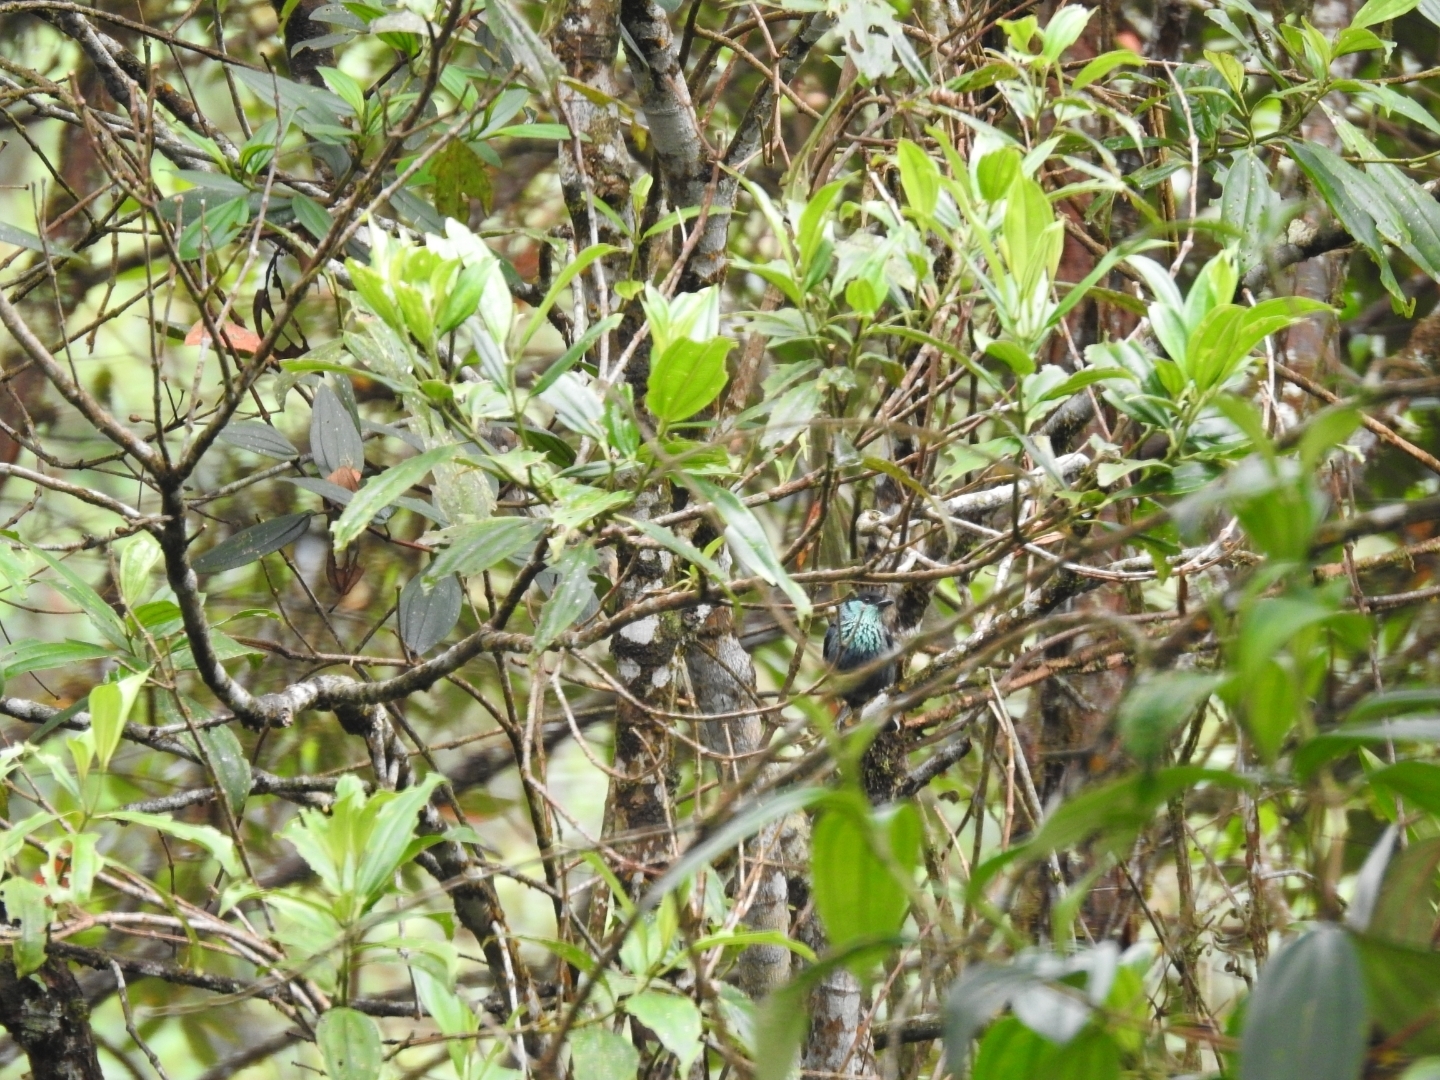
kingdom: Animalia
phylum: Chordata
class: Aves
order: Passeriformes
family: Thraupidae
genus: Stilpnia
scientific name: Stilpnia heinei
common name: Black-capped tanager
